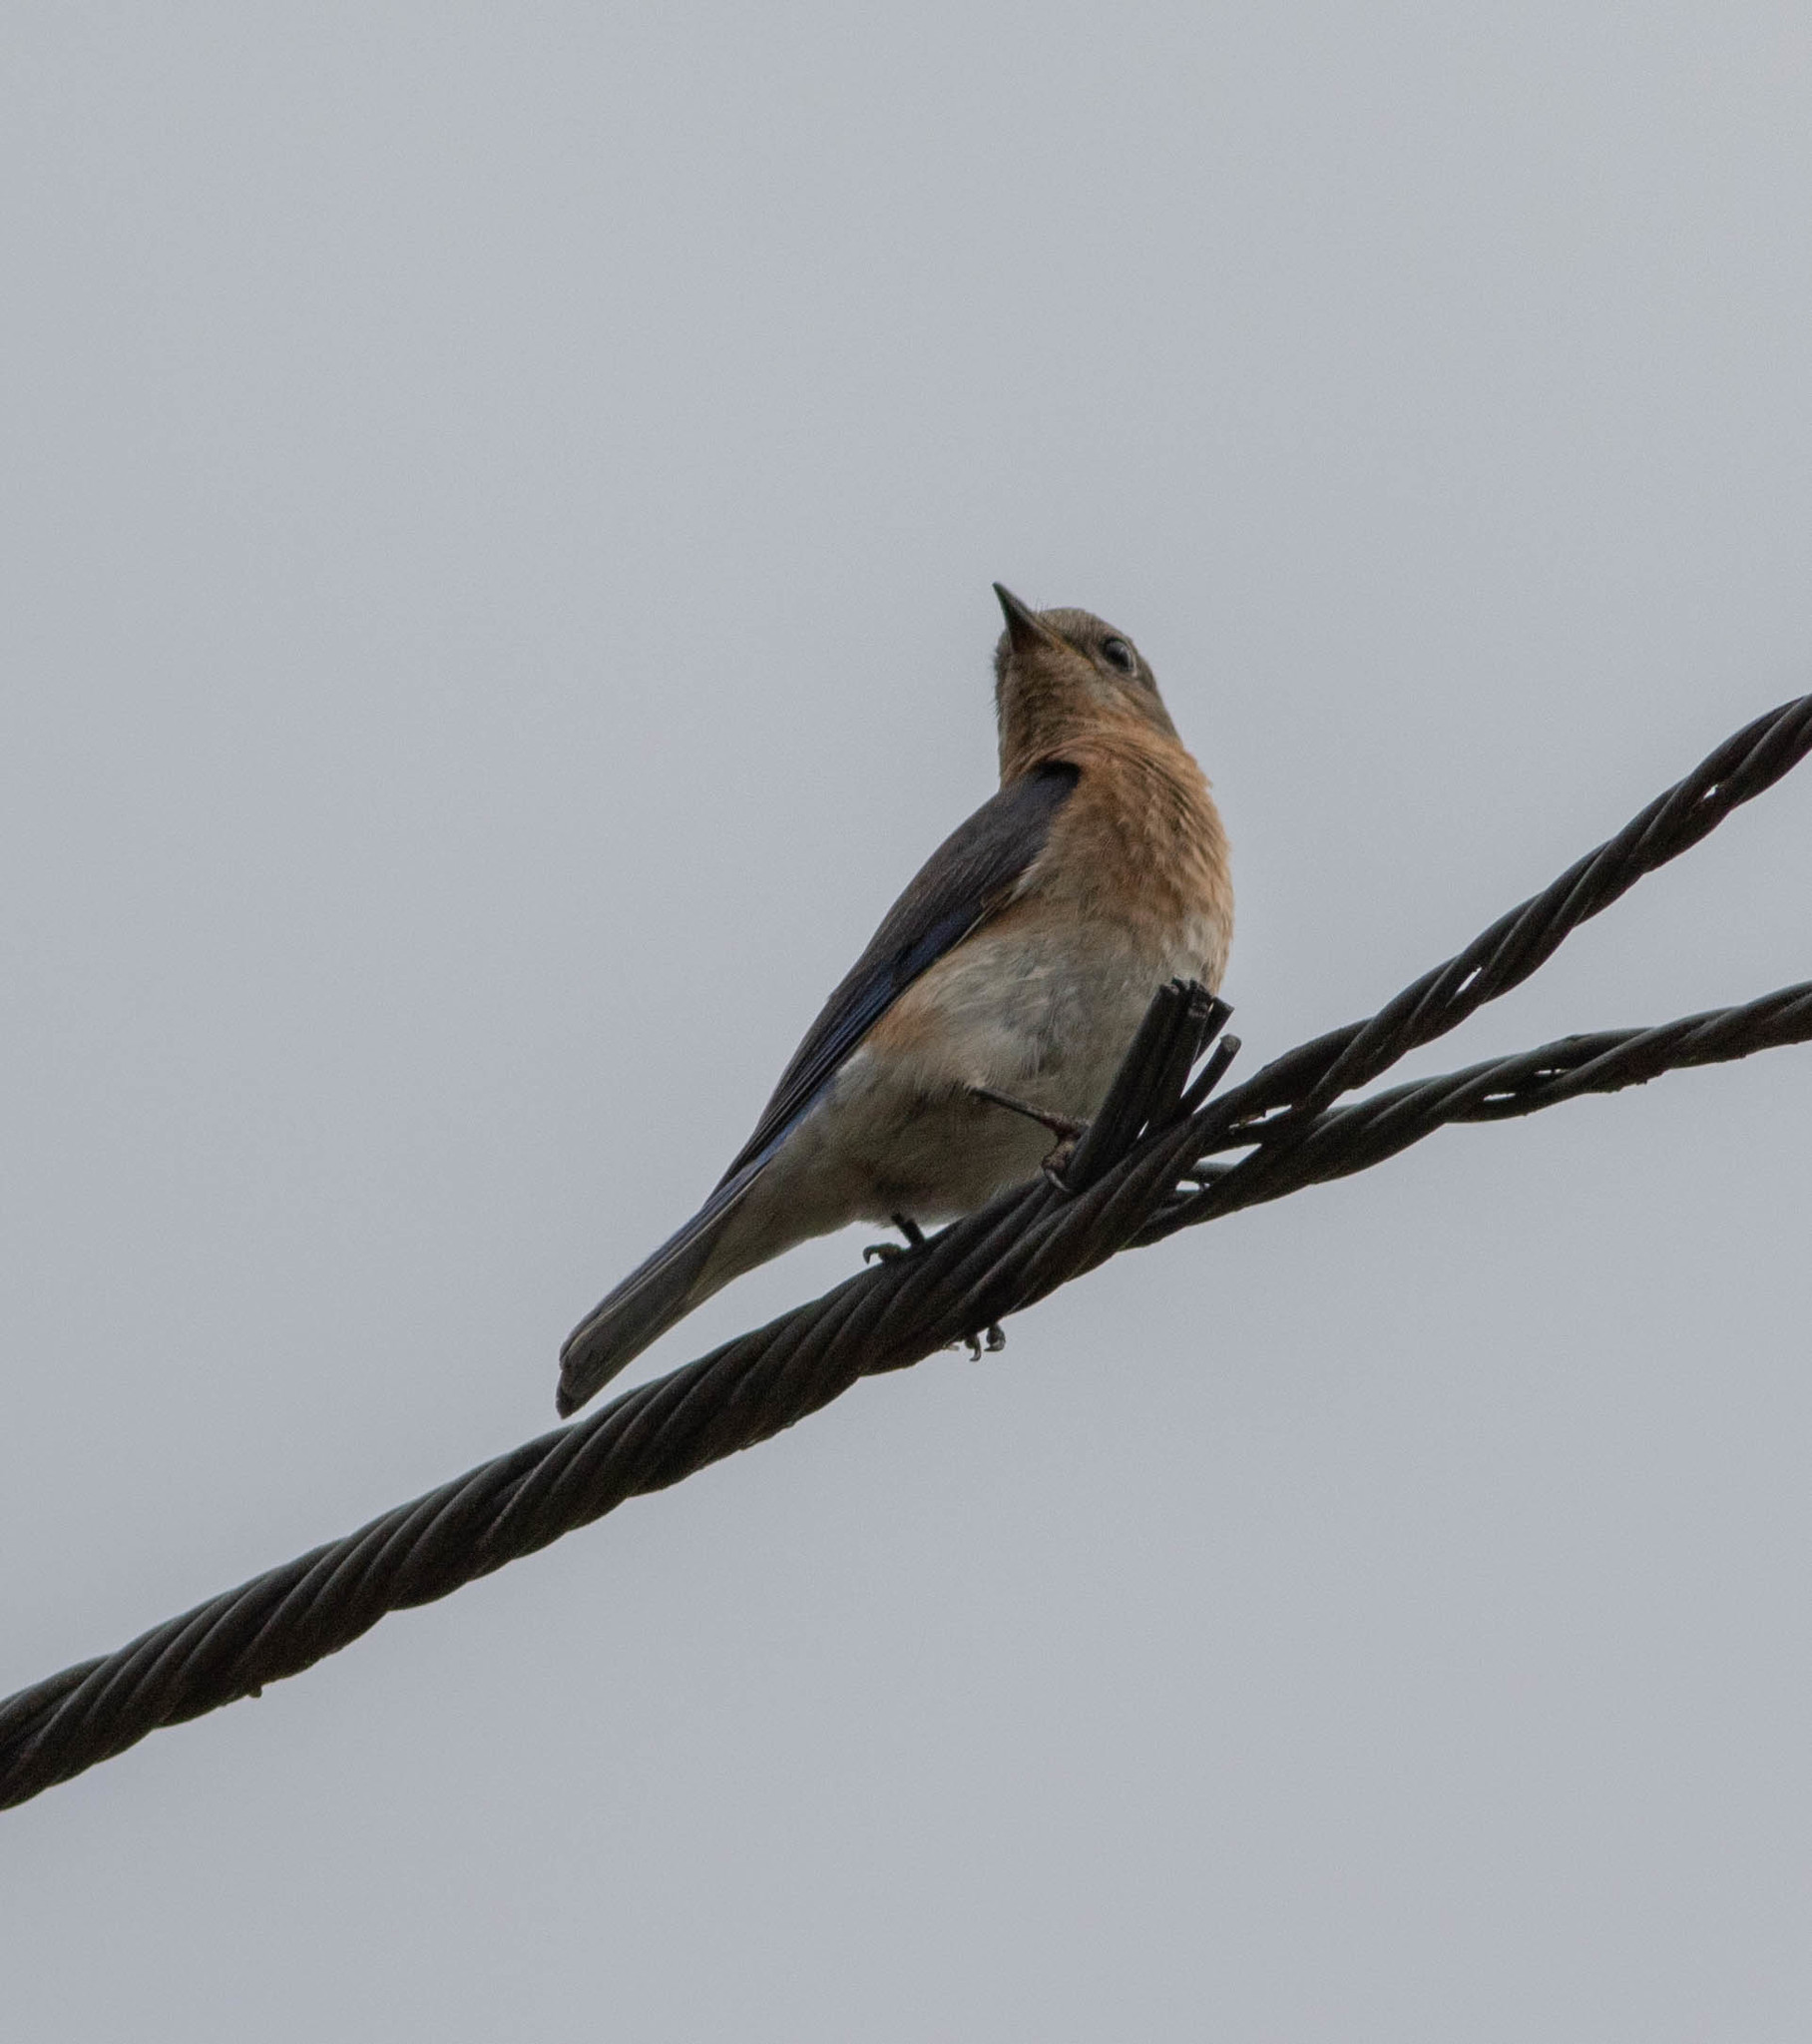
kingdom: Animalia
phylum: Chordata
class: Aves
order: Passeriformes
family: Turdidae
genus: Sialia
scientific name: Sialia sialis
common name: Eastern bluebird
